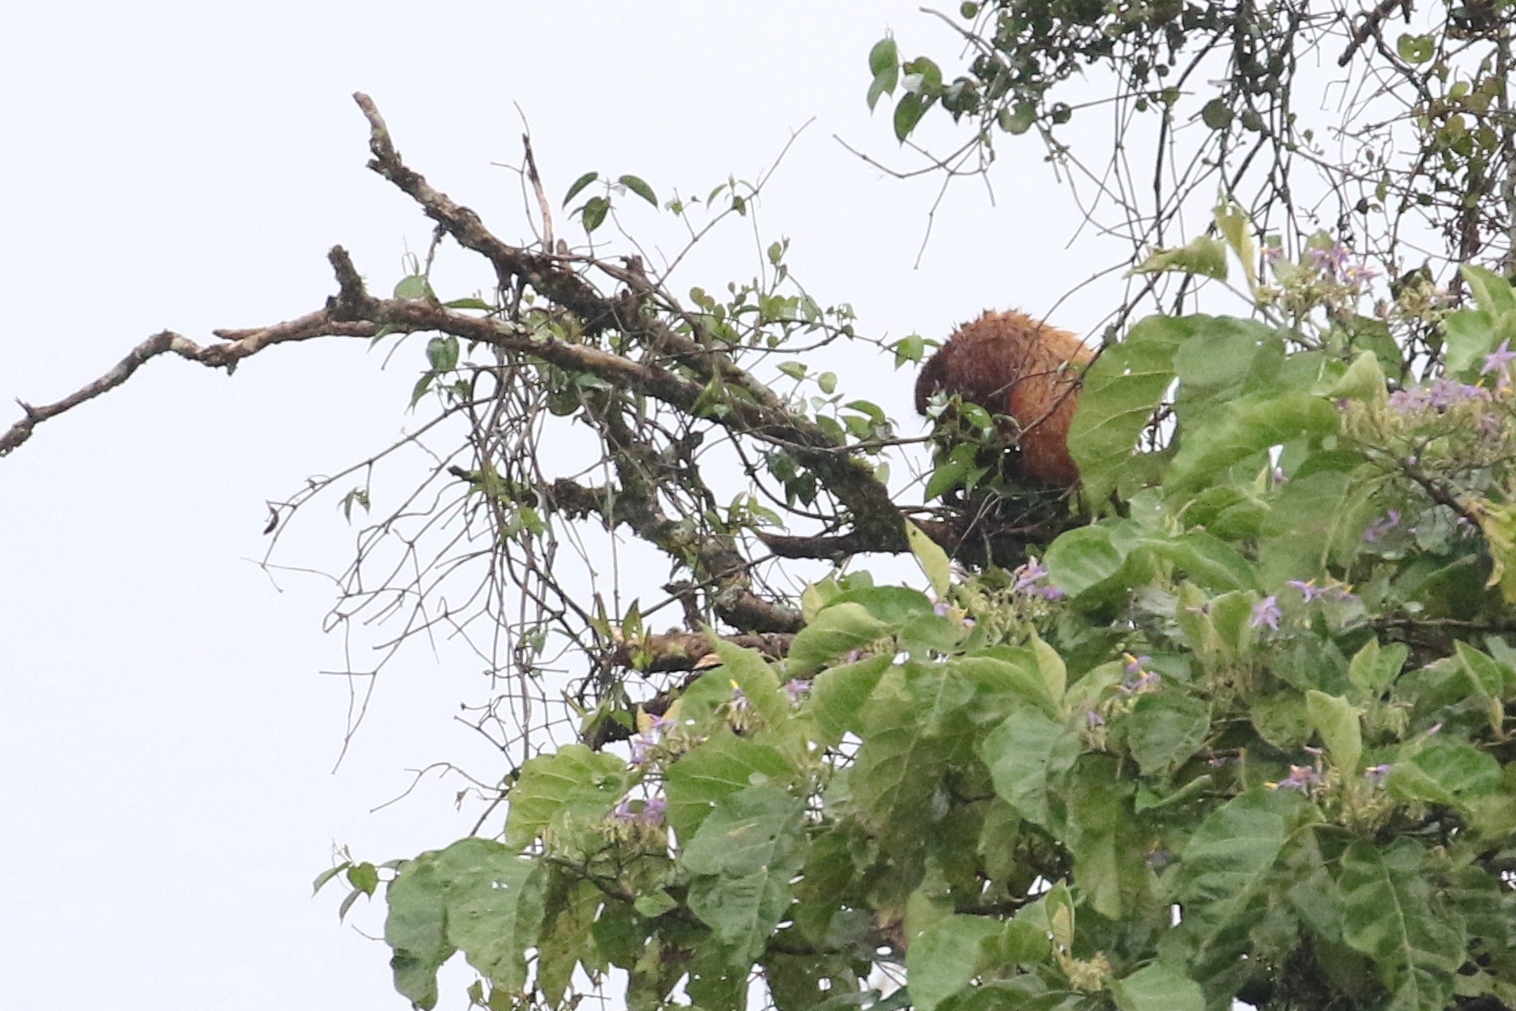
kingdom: Animalia
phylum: Chordata
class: Mammalia
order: Primates
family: Atelidae
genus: Alouatta
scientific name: Alouatta seniculus
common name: Venezuelan red howler
